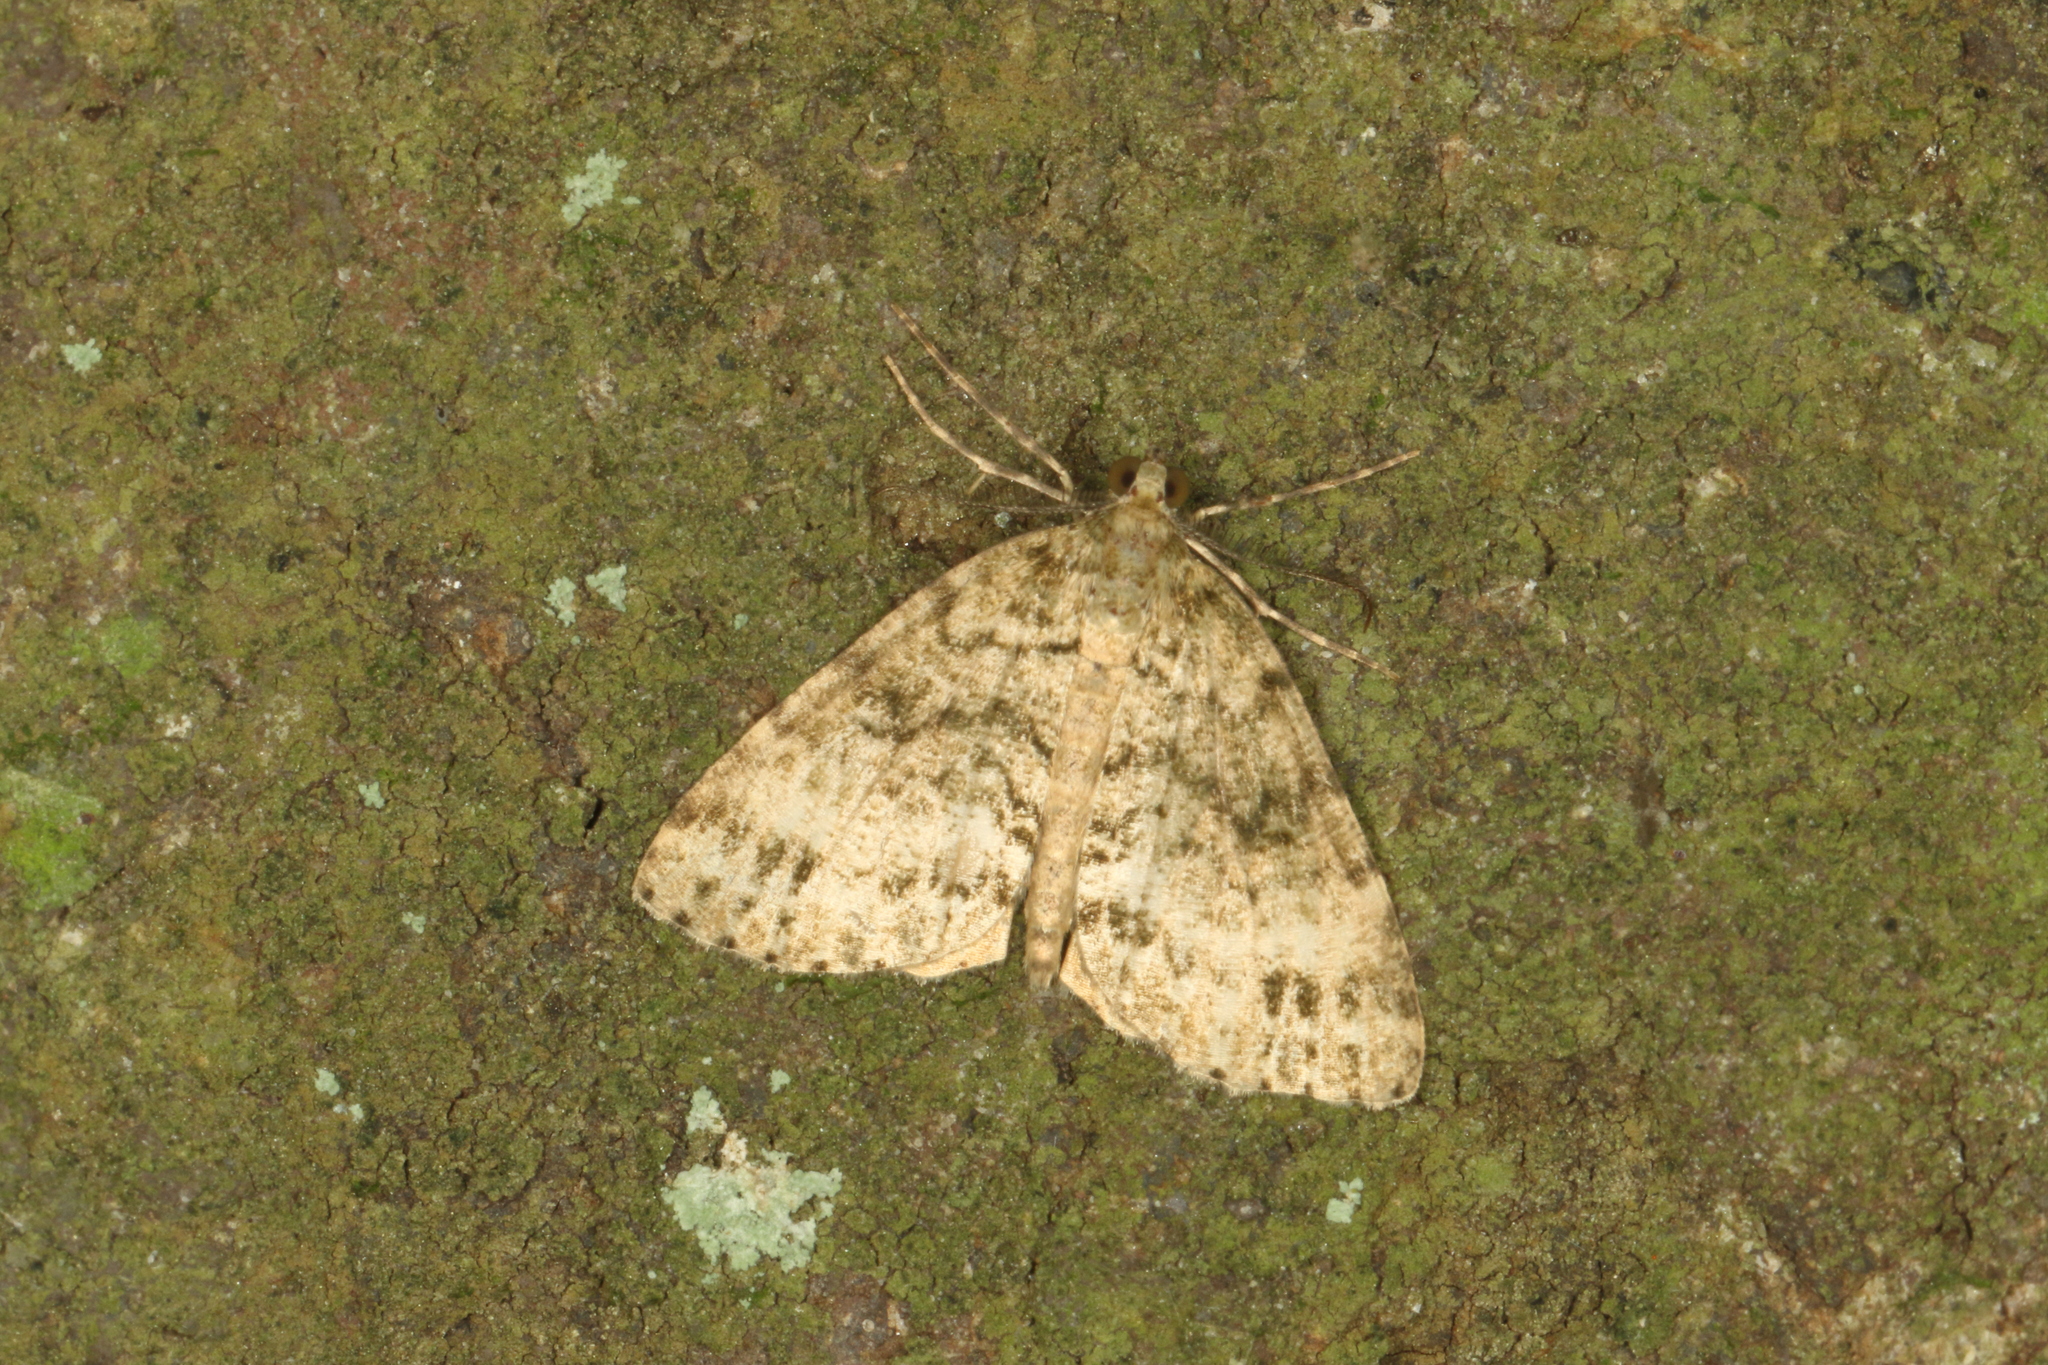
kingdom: Animalia
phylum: Arthropoda
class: Insecta
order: Lepidoptera
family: Geometridae
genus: Pseudocoremia
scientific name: Pseudocoremia indistincta
